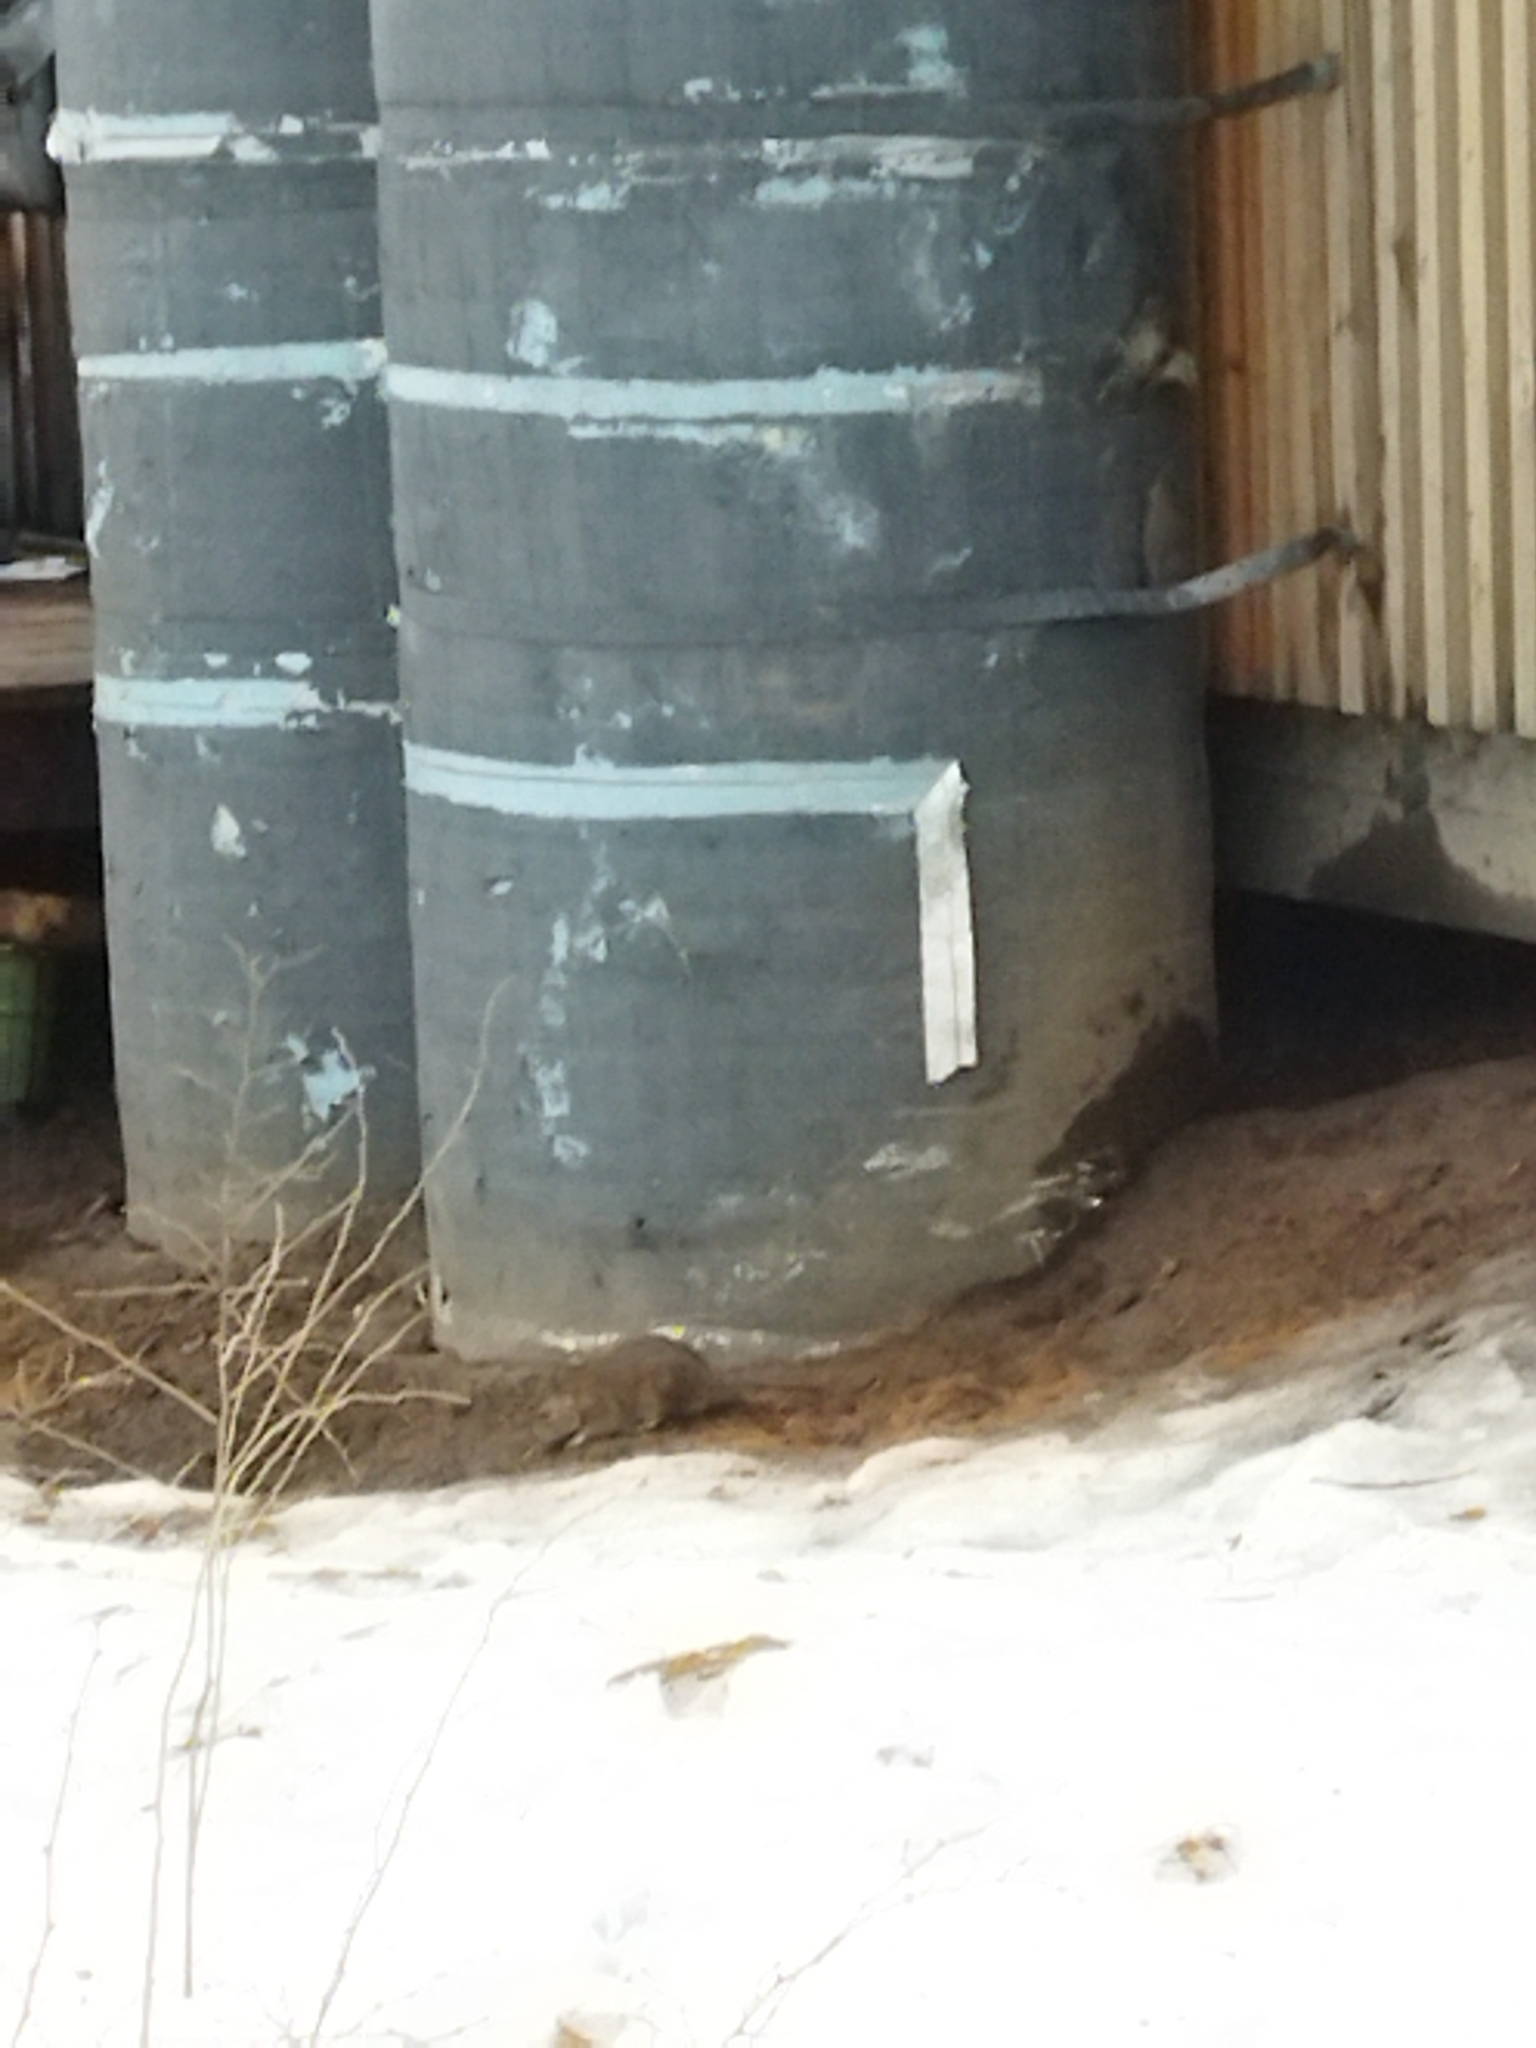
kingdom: Animalia
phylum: Chordata
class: Mammalia
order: Rodentia
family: Muridae
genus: Rattus
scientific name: Rattus norvegicus
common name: Brown rat
